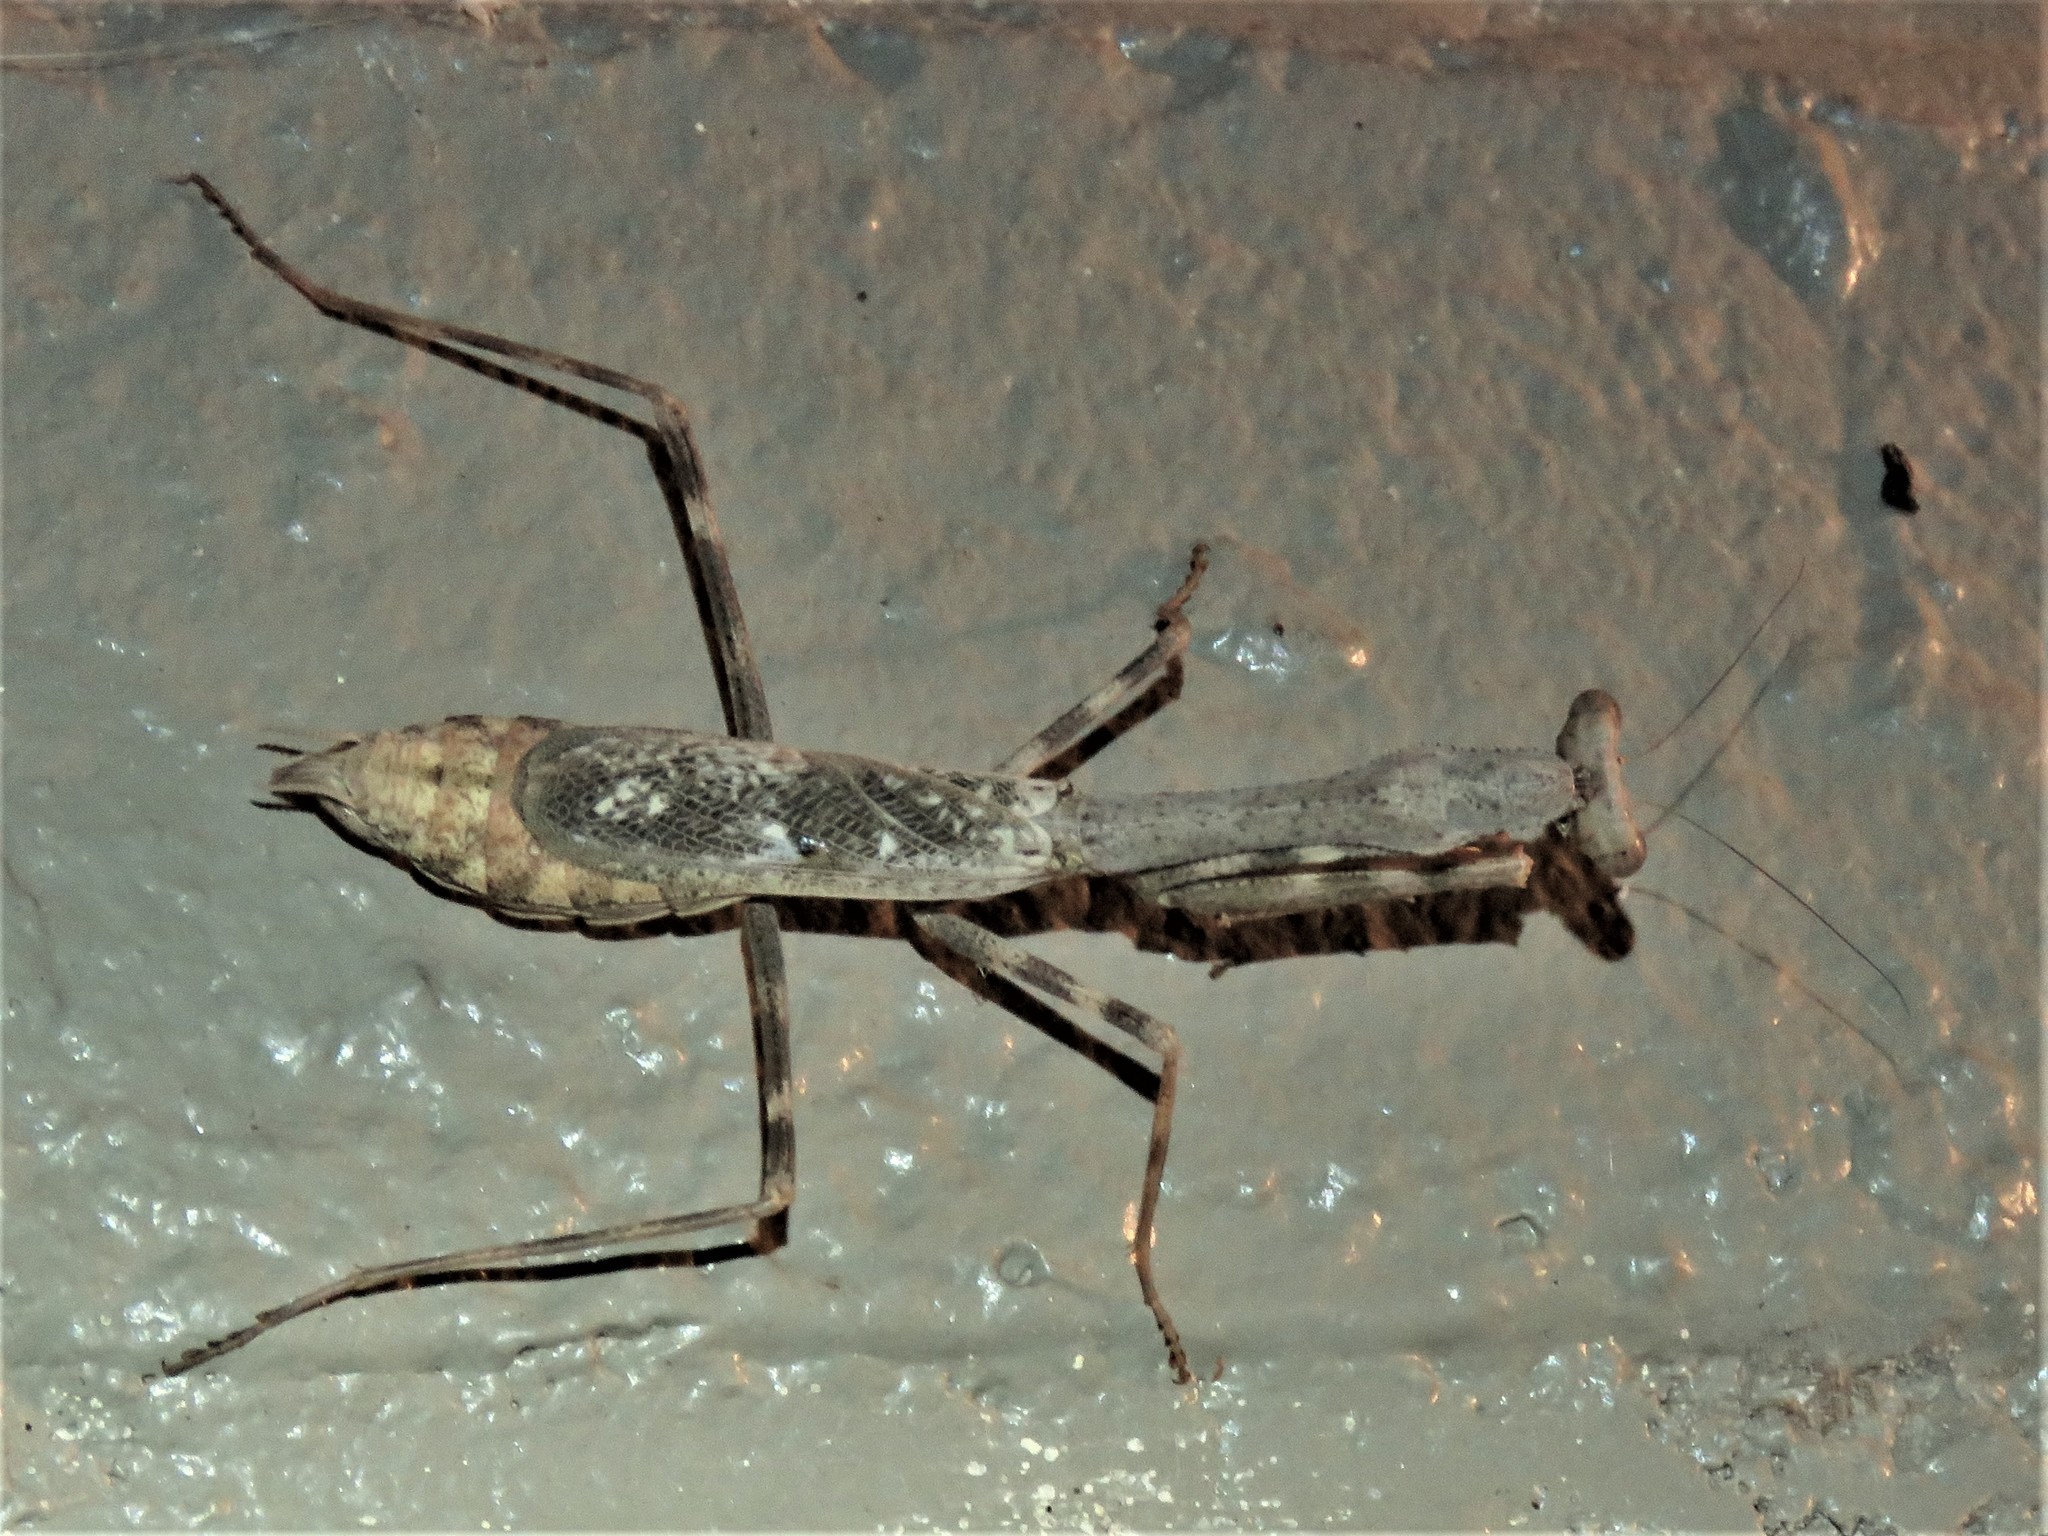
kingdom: Animalia
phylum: Arthropoda
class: Insecta
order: Mantodea
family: Mantidae
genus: Stagmomantis
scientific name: Stagmomantis carolina
